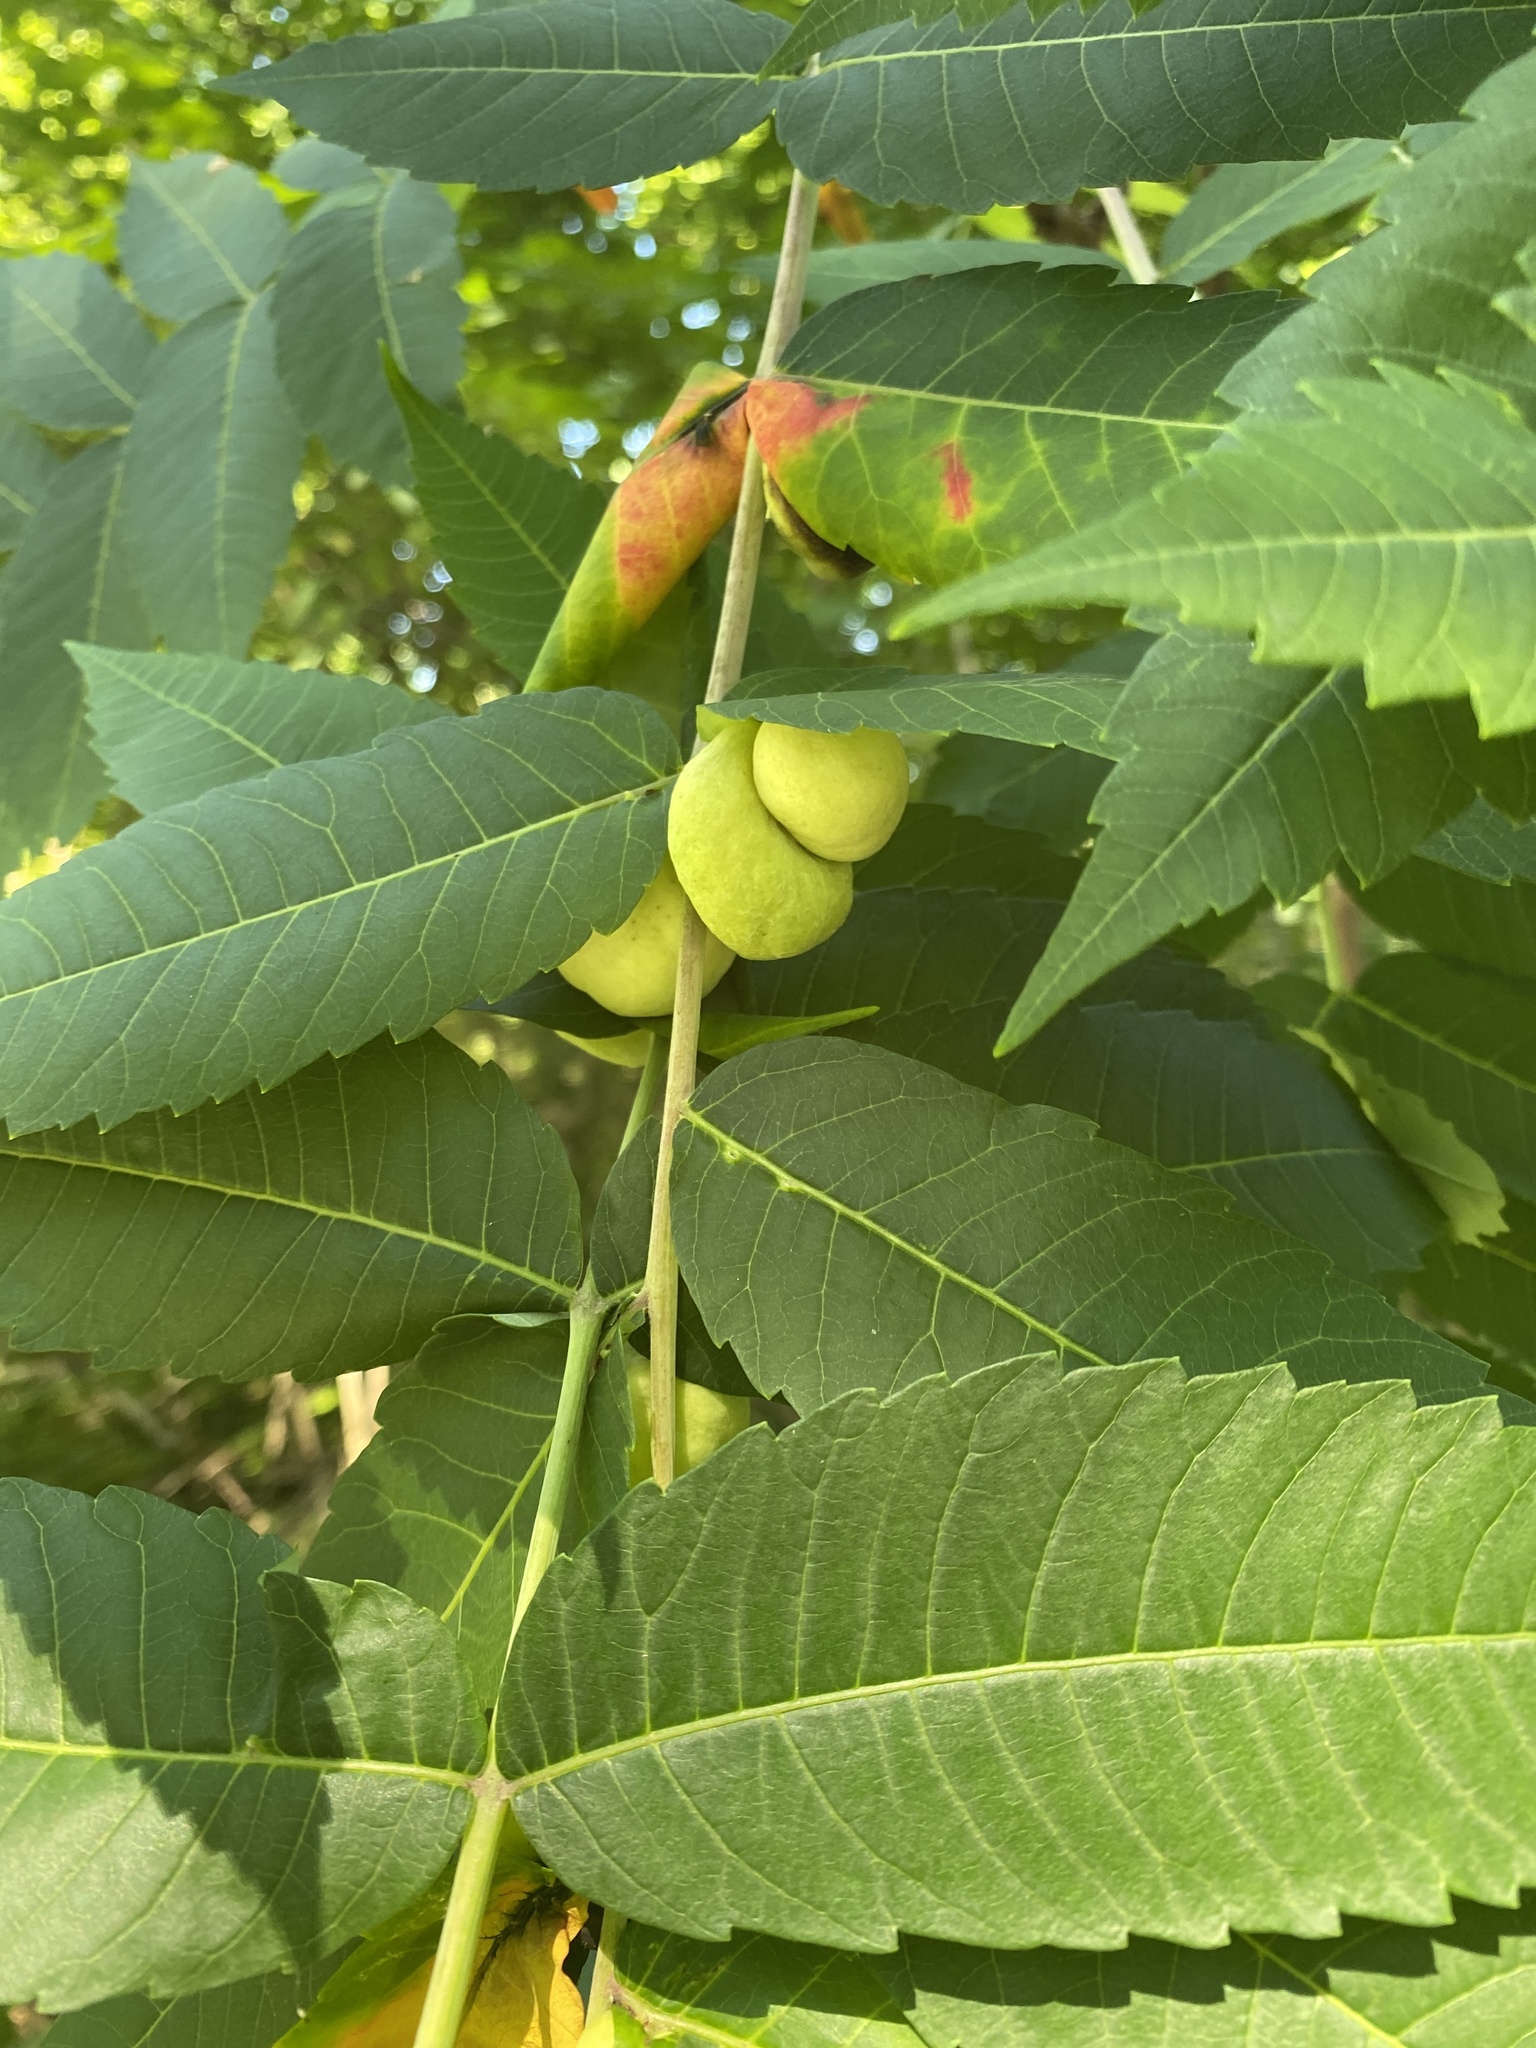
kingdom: Animalia
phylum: Arthropoda
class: Insecta
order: Hemiptera
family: Aphididae
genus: Melaphis
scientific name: Melaphis rhois
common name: Sumac gall aphid
